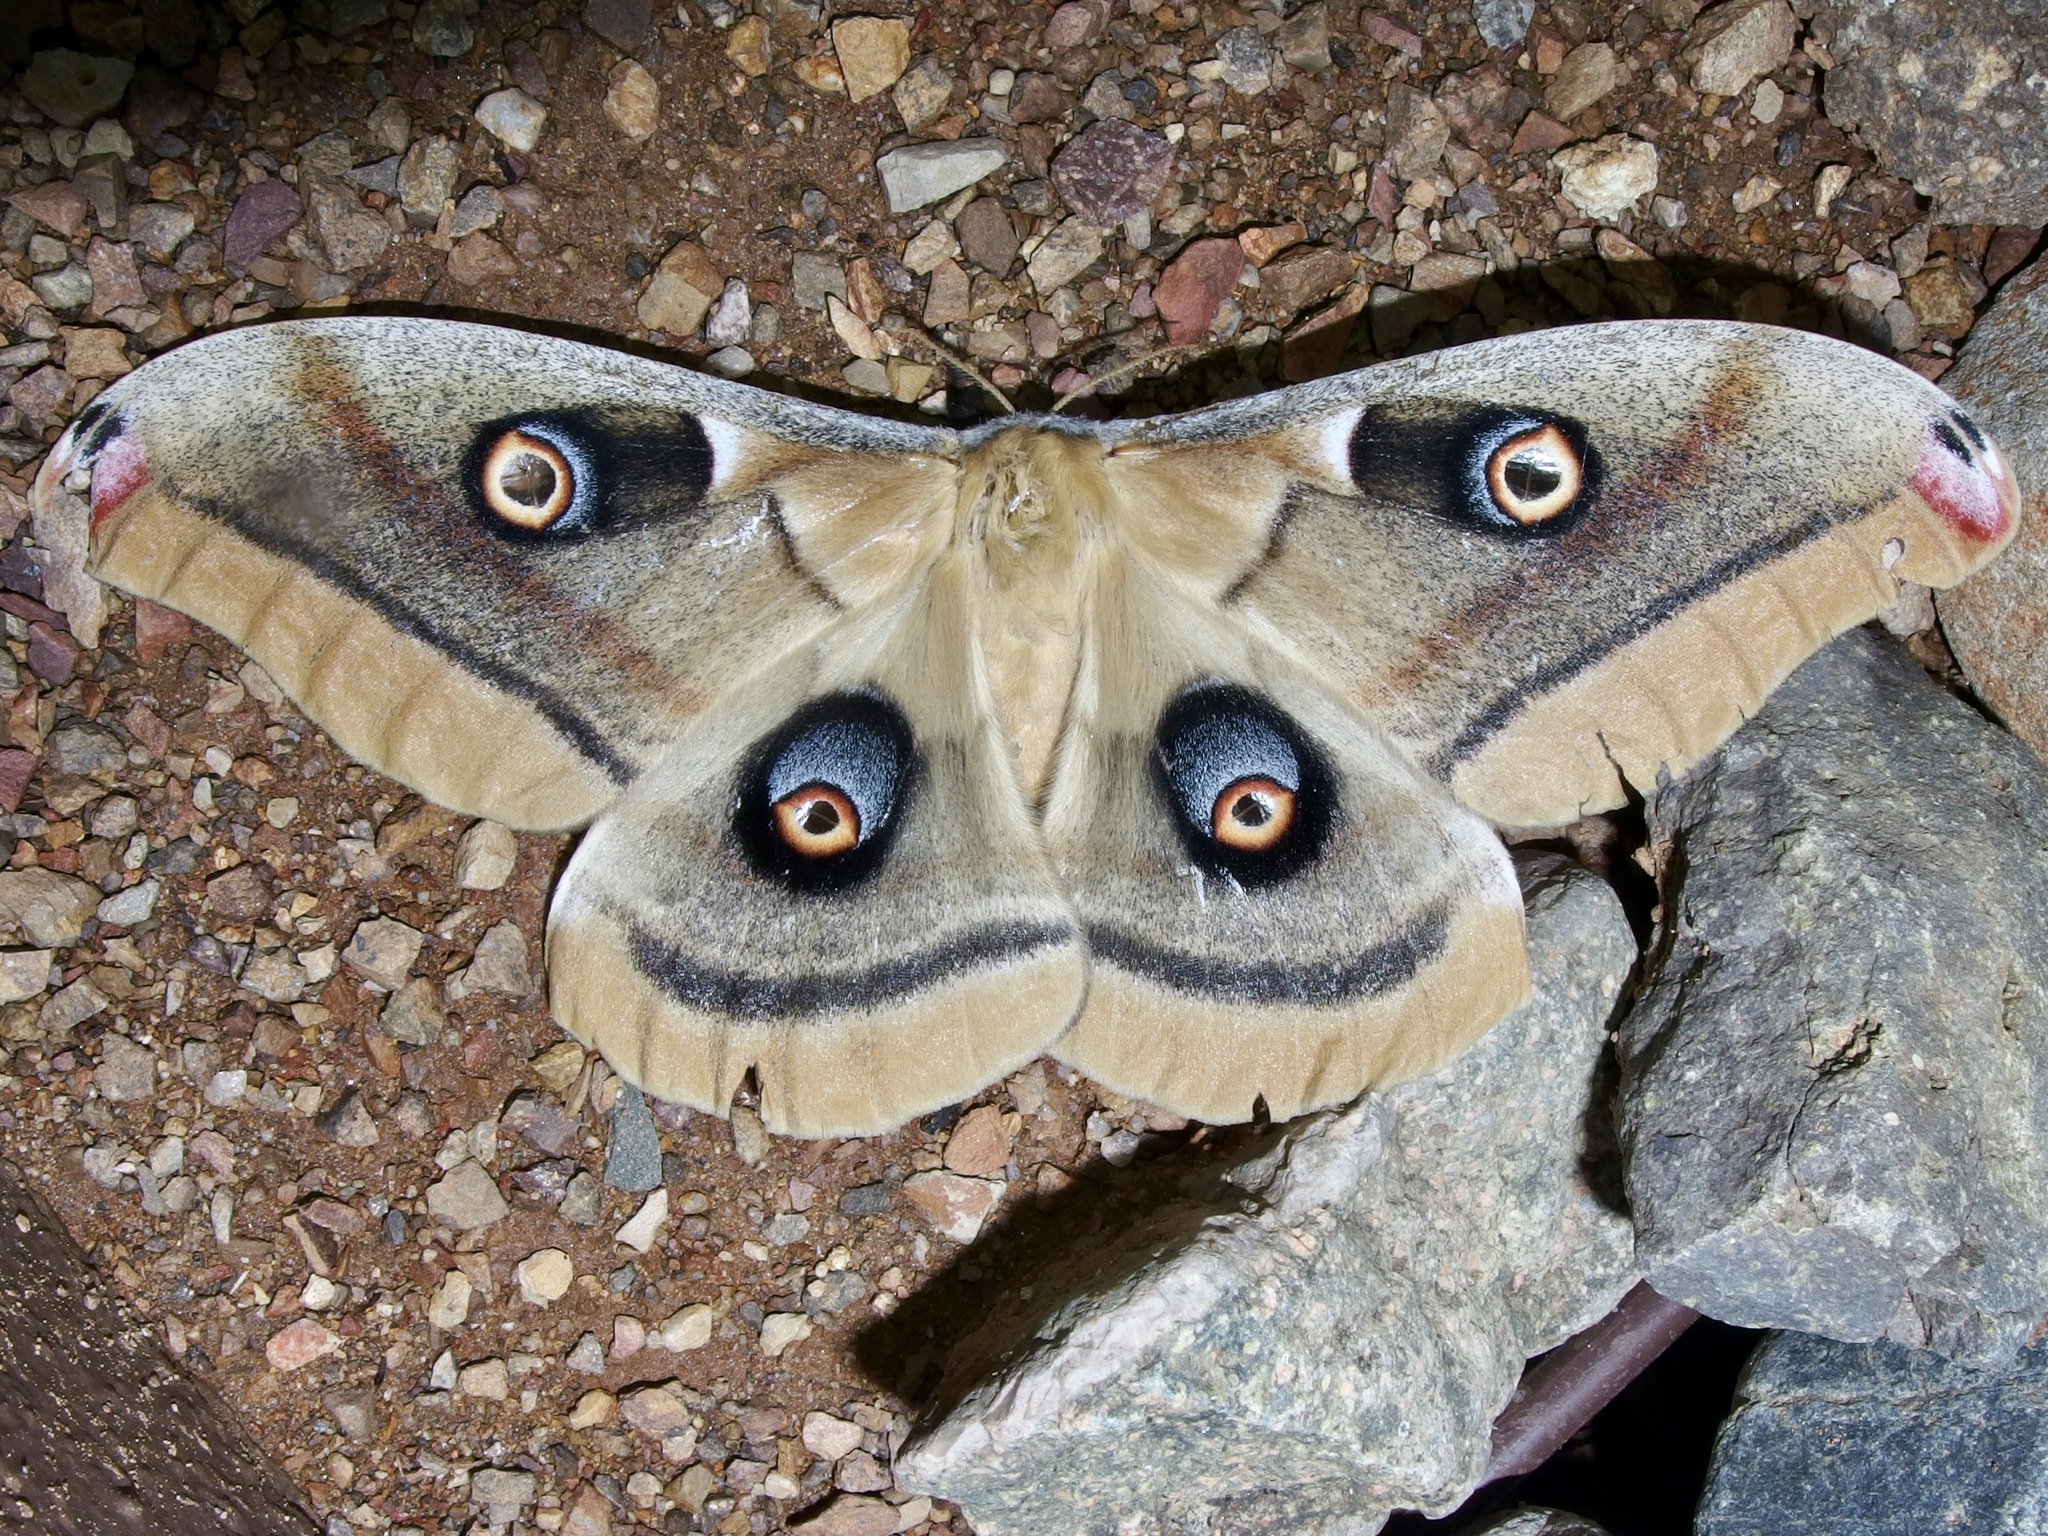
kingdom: Animalia
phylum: Arthropoda
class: Insecta
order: Lepidoptera
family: Saturniidae
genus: Antheraea
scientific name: Antheraea oculea
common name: Arizona polyphemus moth
